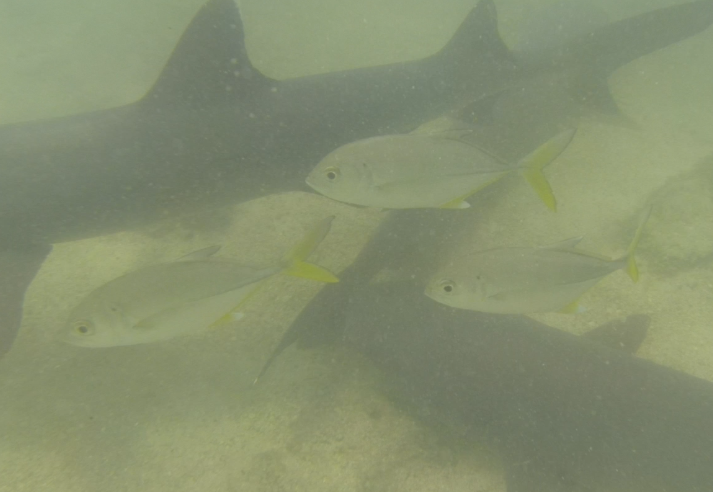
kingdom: Animalia
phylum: Chordata
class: Elasmobranchii
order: Carcharhiniformes
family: Carcharhinidae
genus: Triaenodon
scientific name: Triaenodon obesus
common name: Whitetip reef shark
